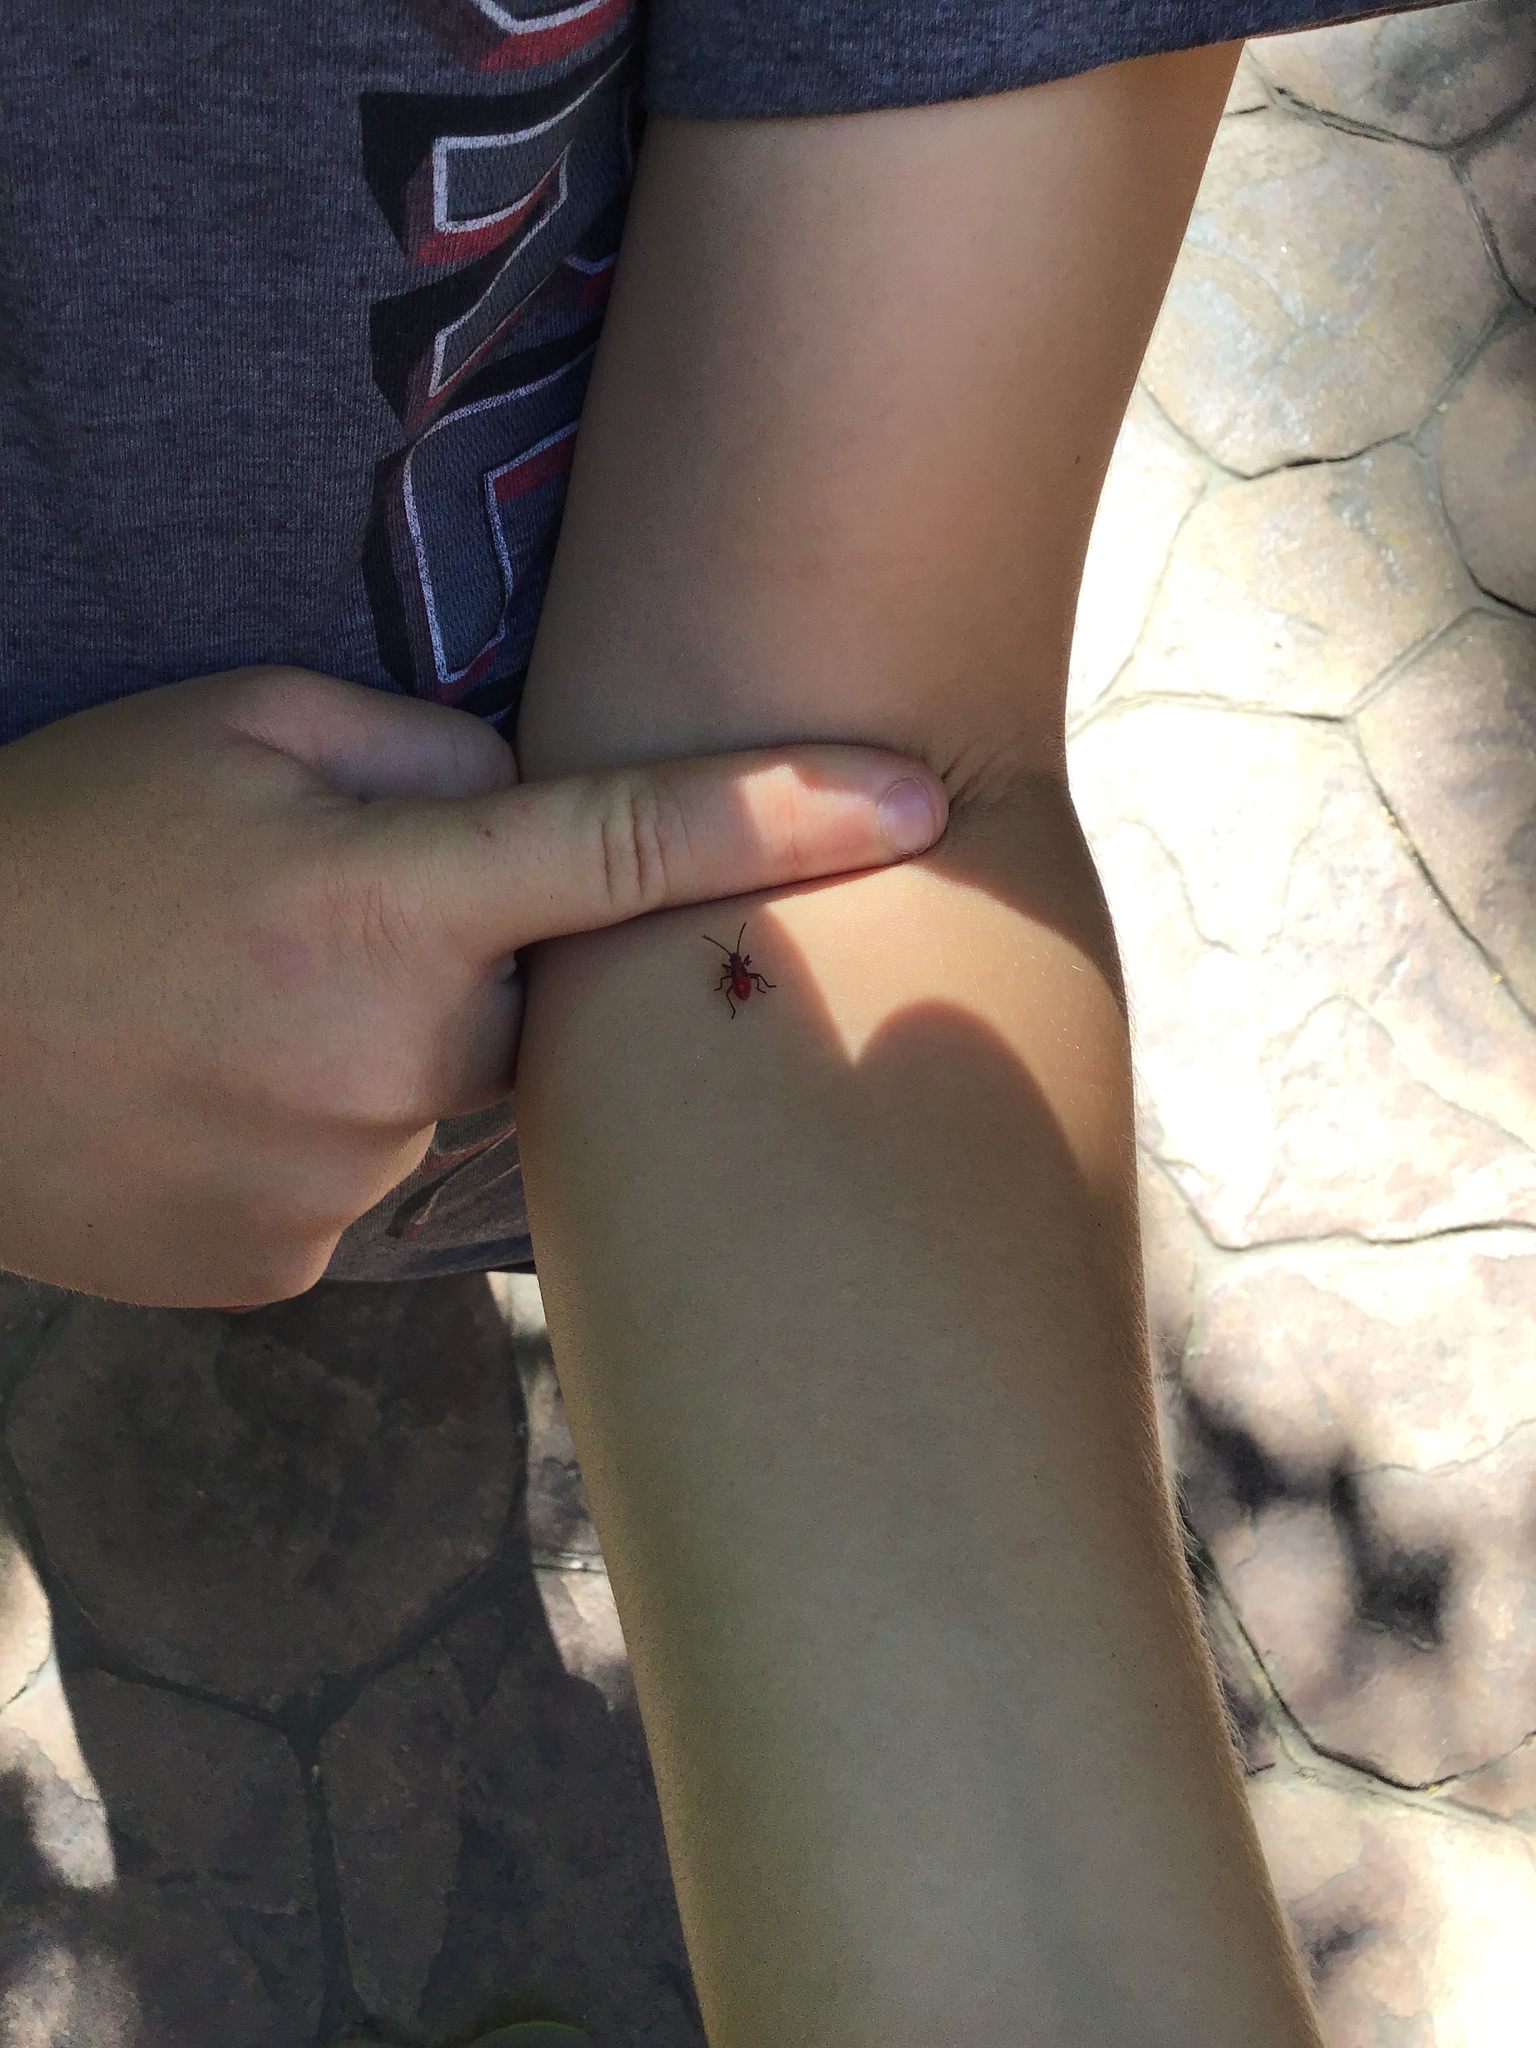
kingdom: Animalia
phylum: Arthropoda
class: Insecta
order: Hemiptera
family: Rhopalidae
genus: Boisea
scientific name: Boisea
